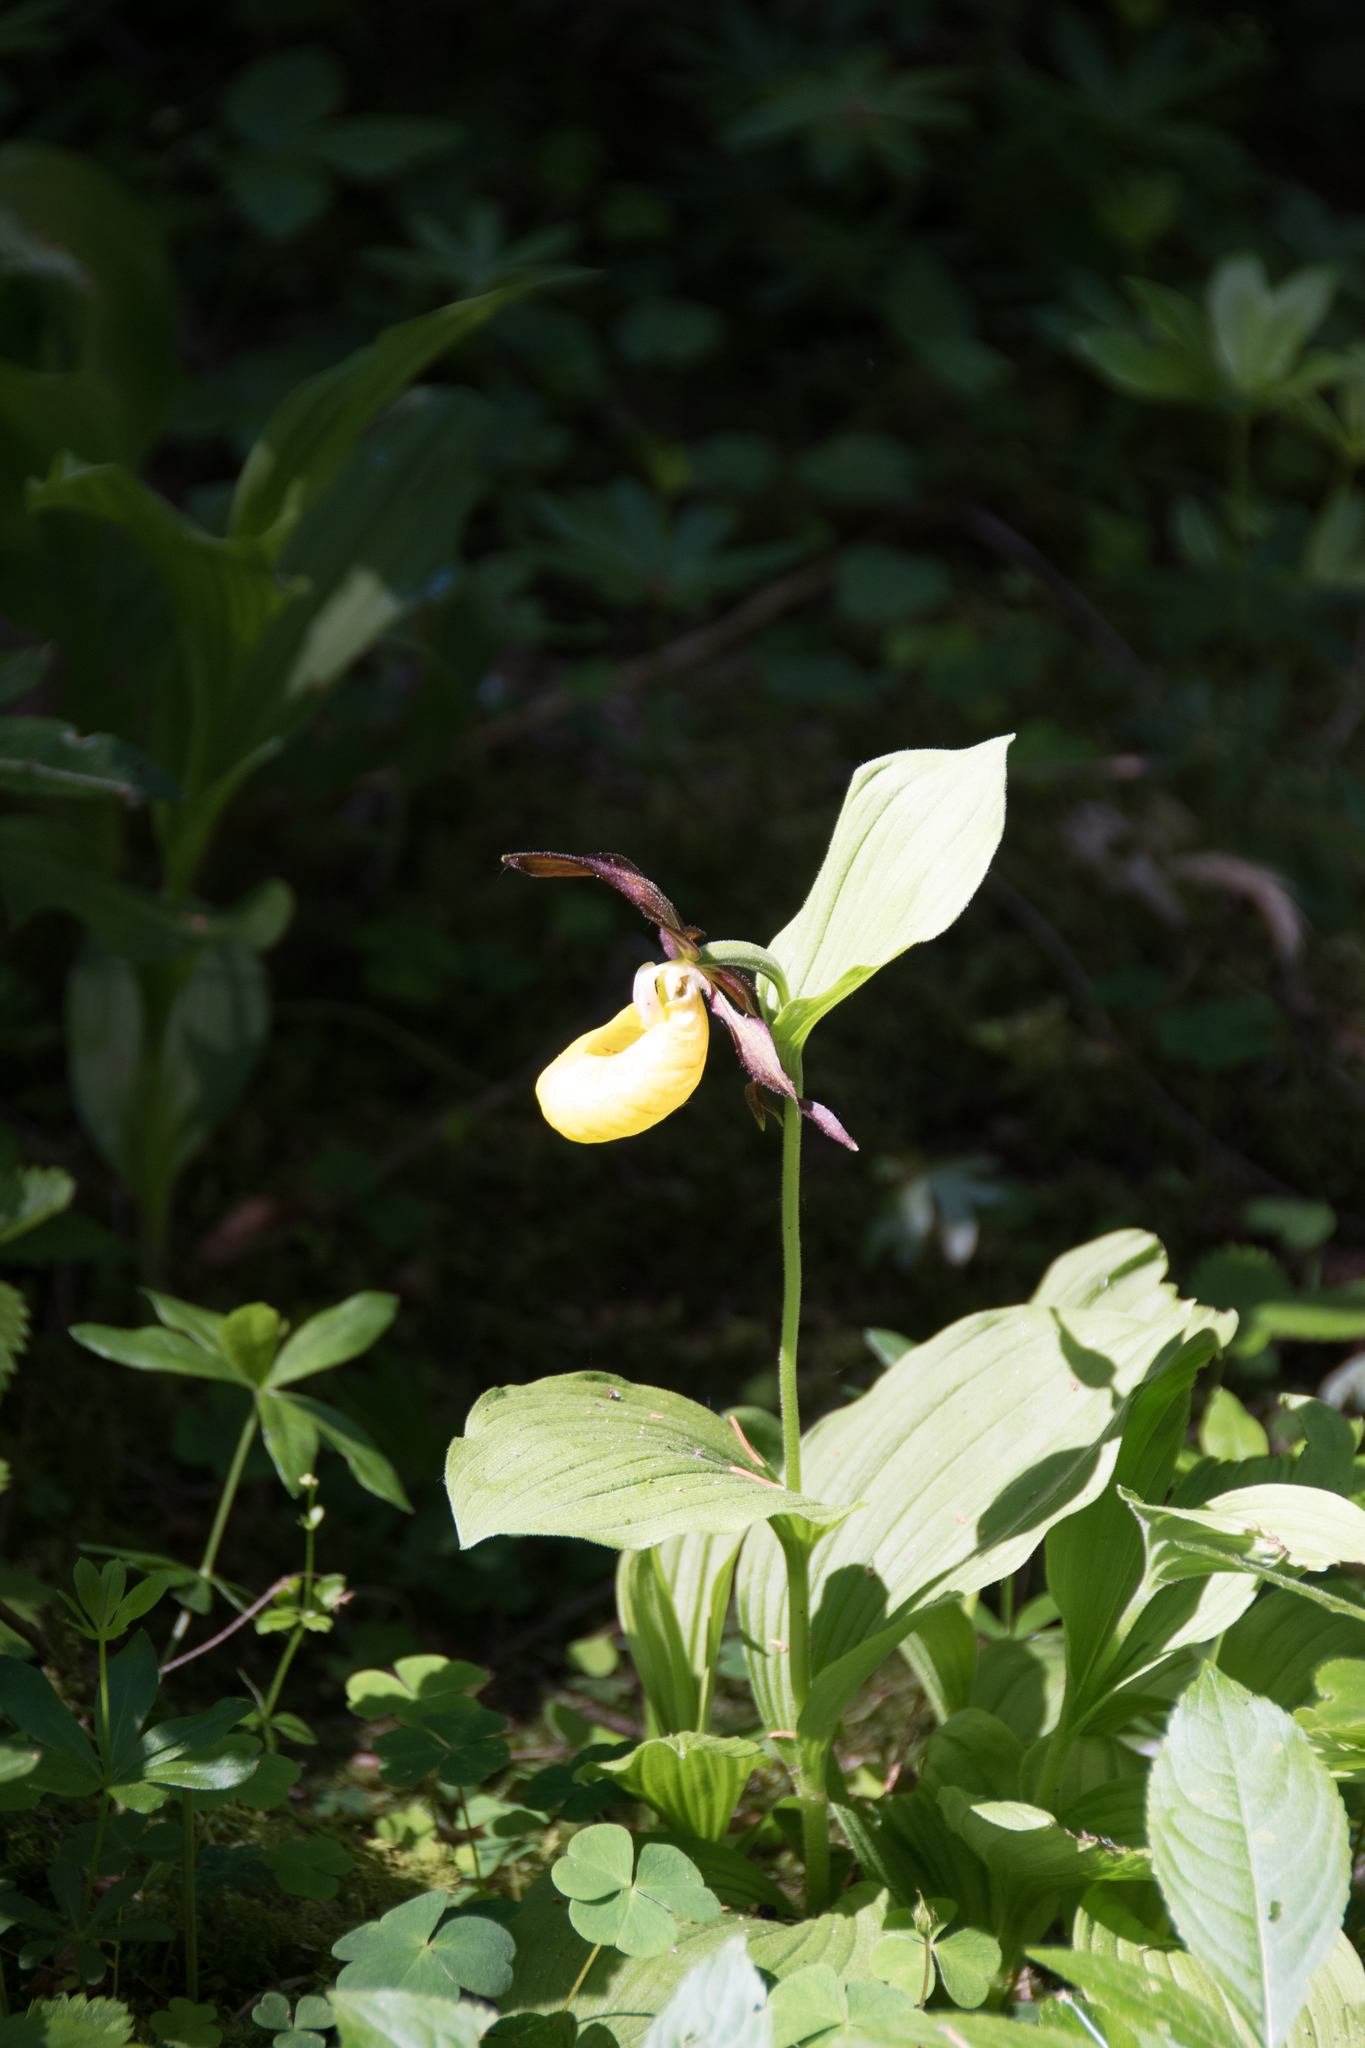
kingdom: Plantae
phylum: Tracheophyta
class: Liliopsida
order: Asparagales
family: Orchidaceae
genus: Cypripedium
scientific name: Cypripedium calceolus
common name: Lady's-slipper
